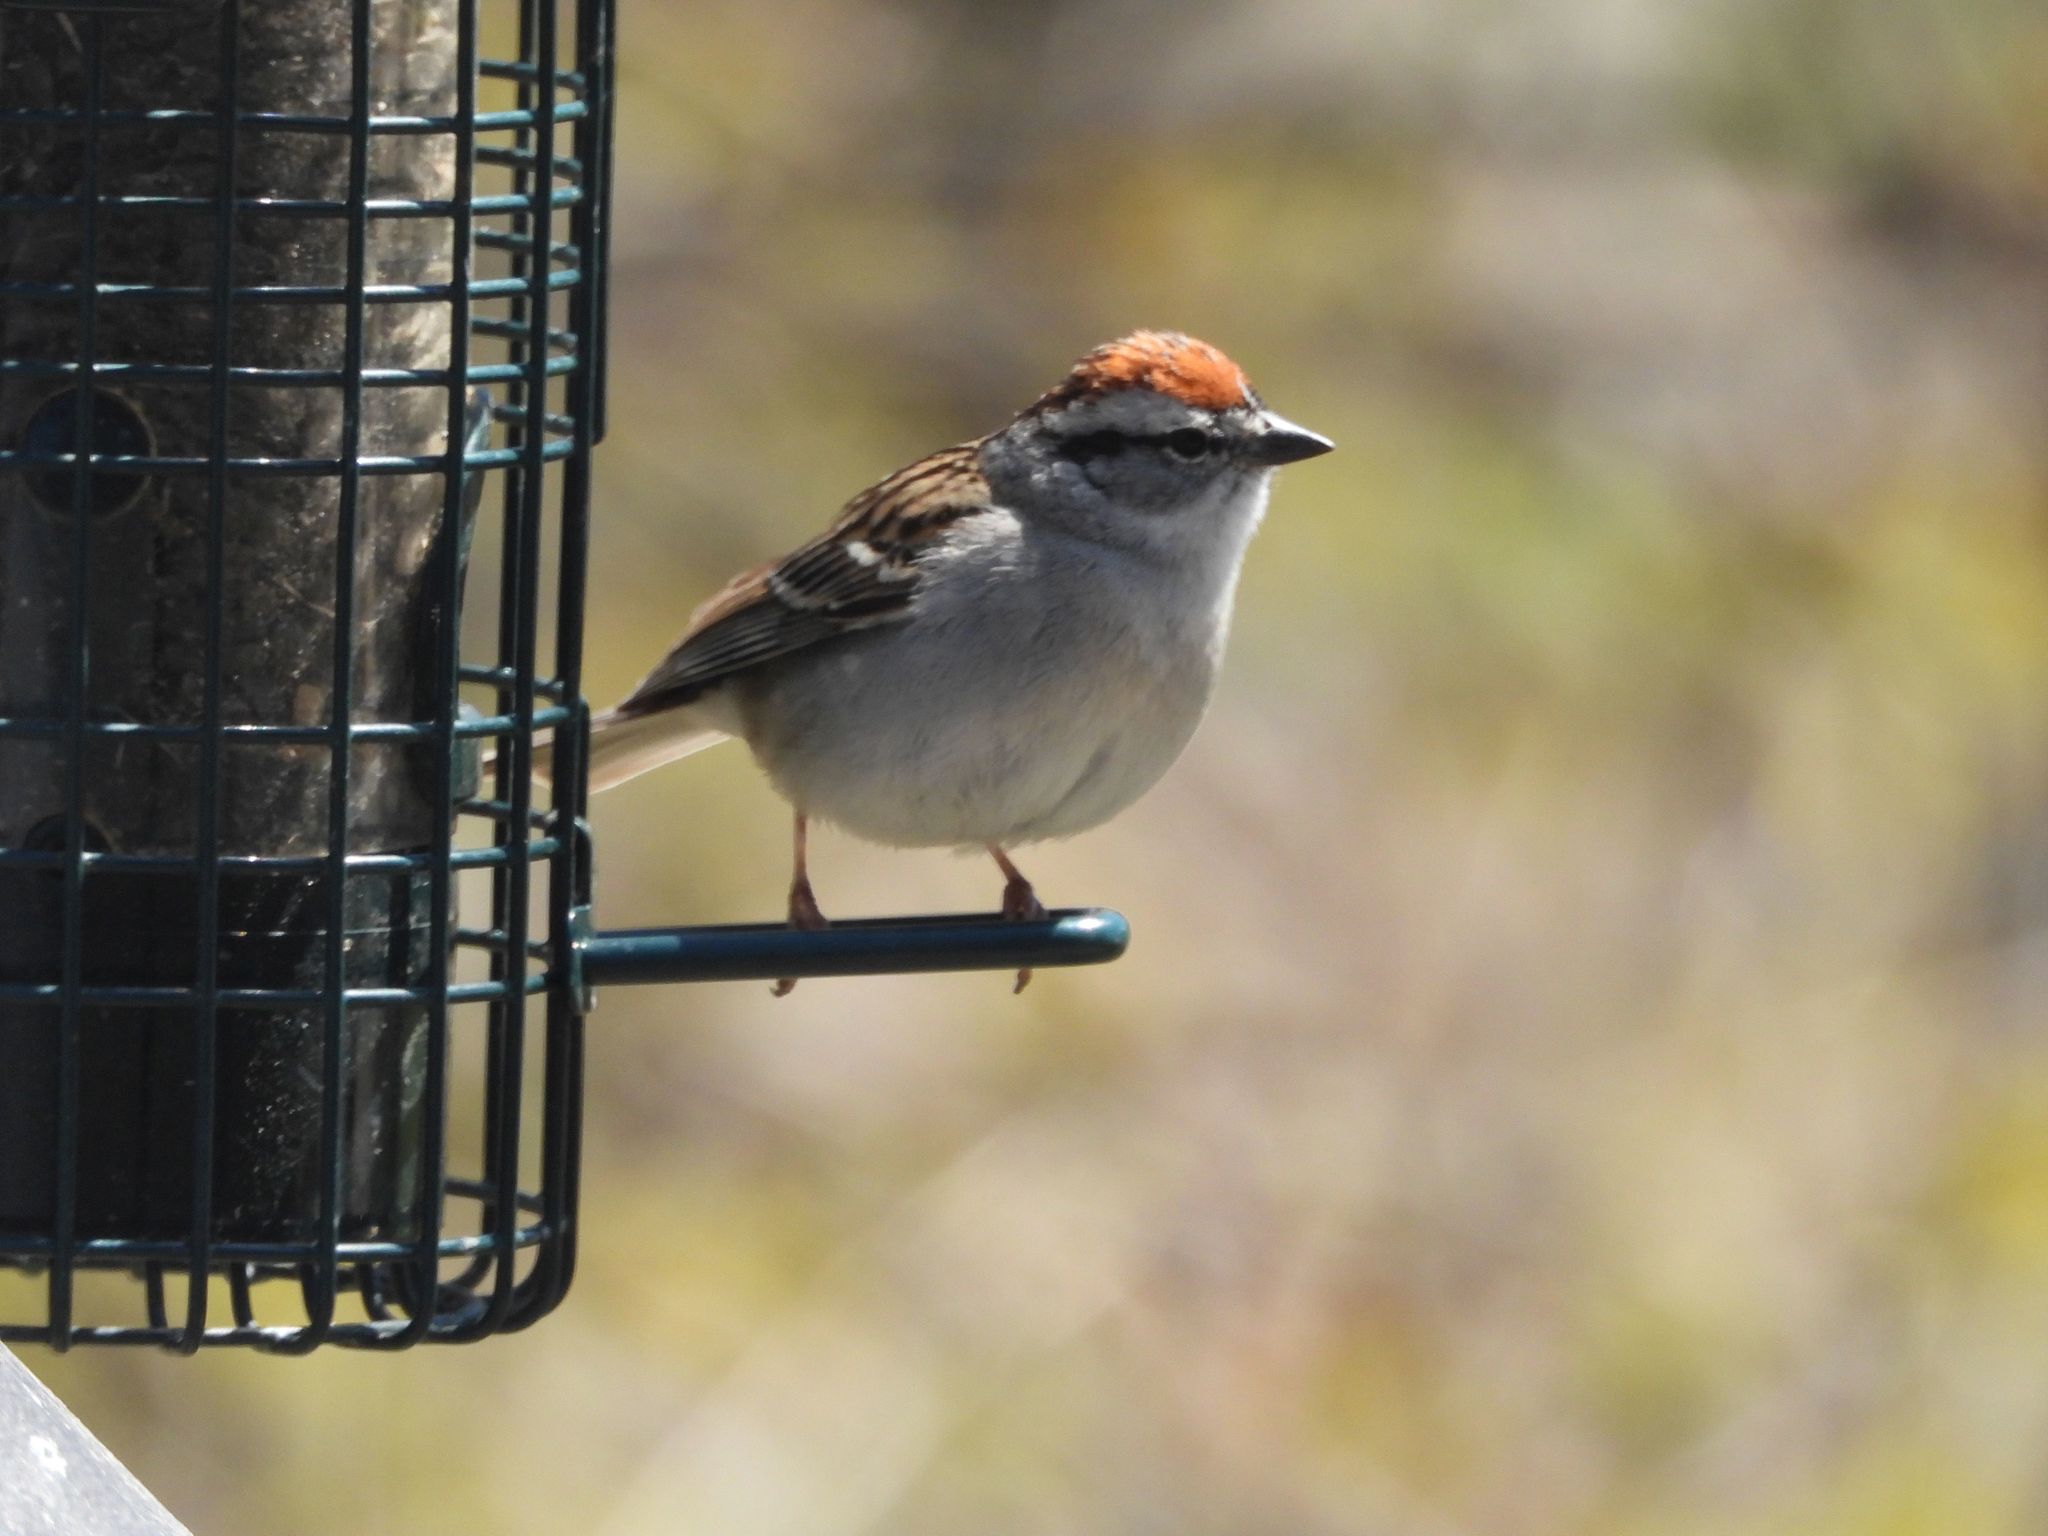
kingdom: Animalia
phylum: Chordata
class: Aves
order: Passeriformes
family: Passerellidae
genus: Spizella
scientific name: Spizella passerina
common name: Chipping sparrow
